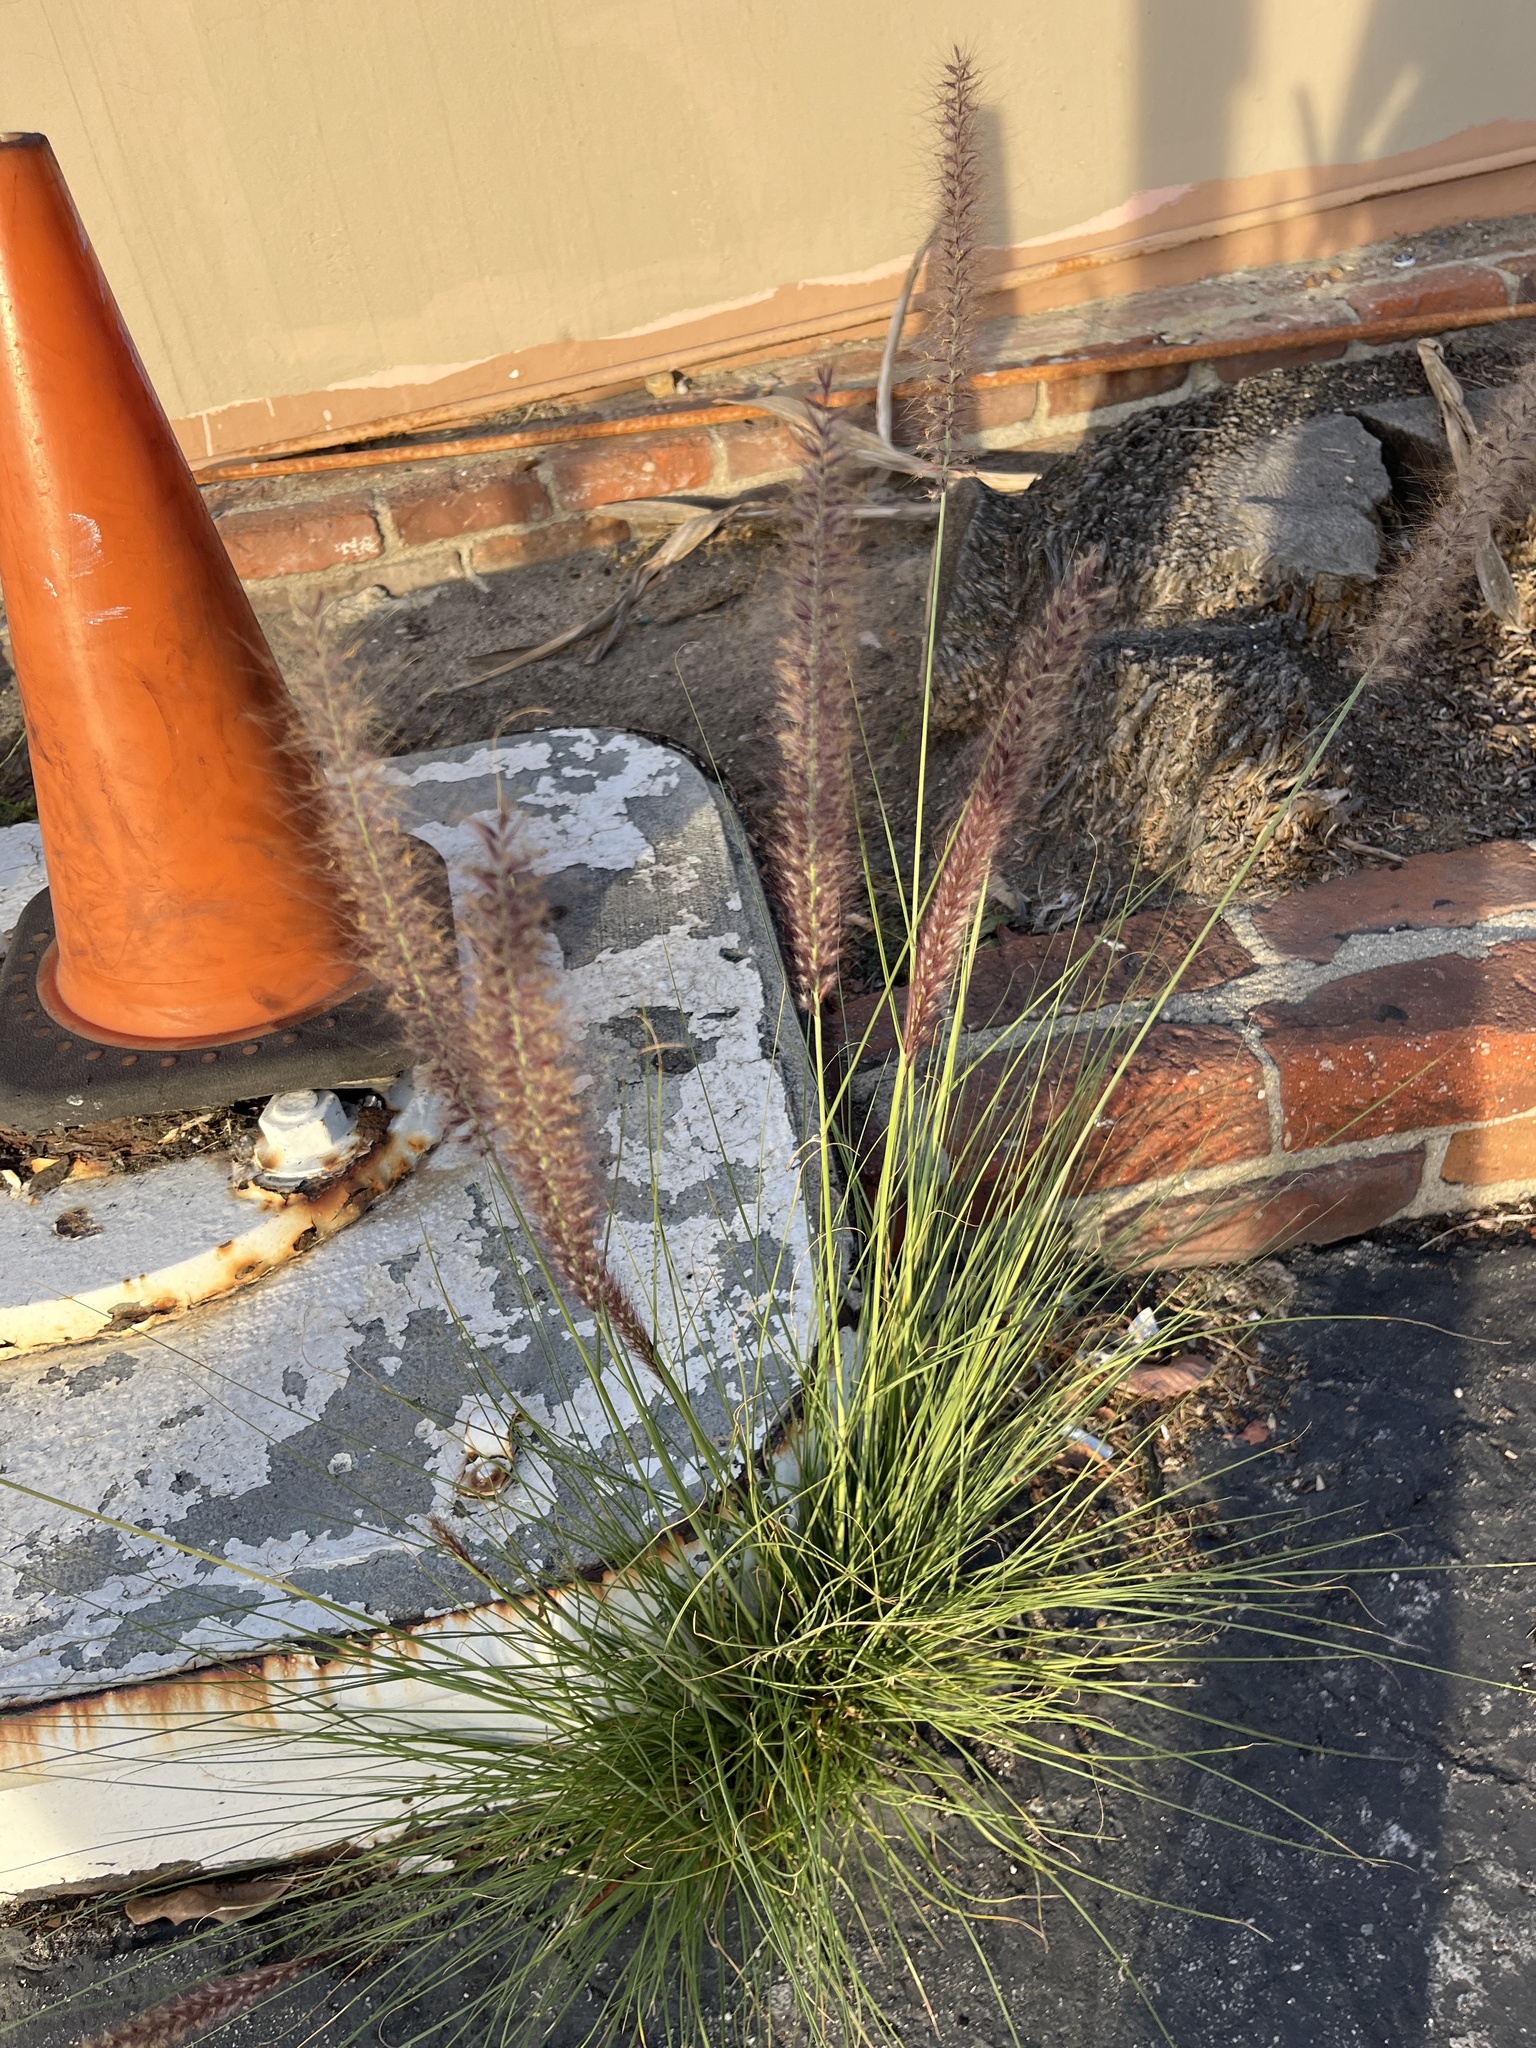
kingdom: Plantae
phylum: Tracheophyta
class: Liliopsida
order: Poales
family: Poaceae
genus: Cenchrus
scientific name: Cenchrus setaceus
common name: Crimson fountaingrass
